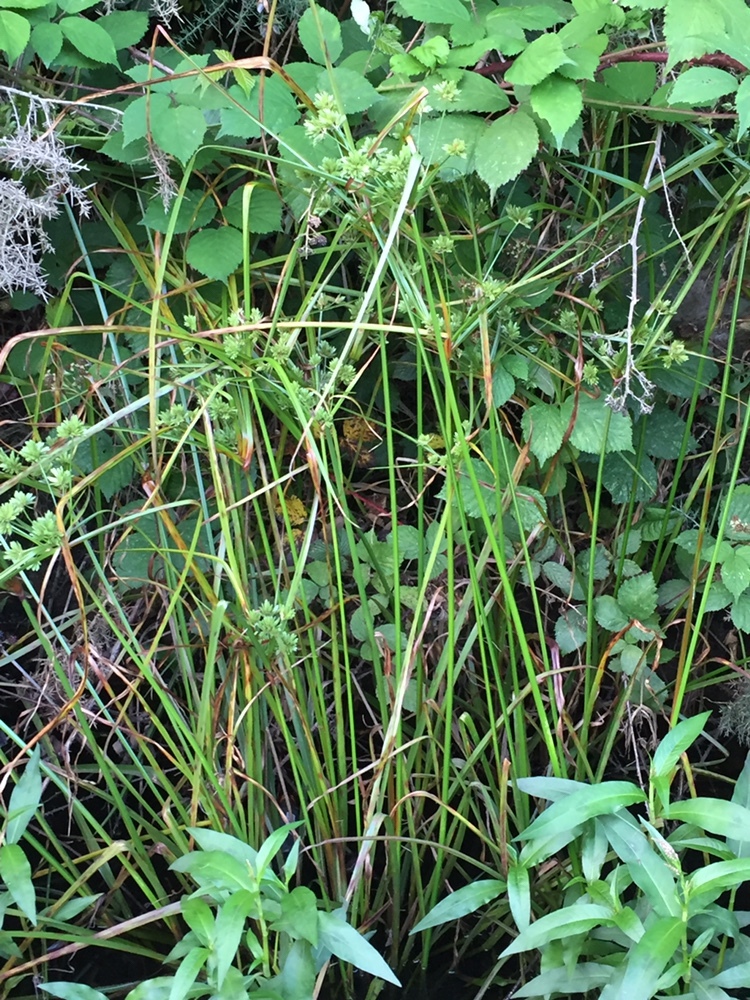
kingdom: Plantae
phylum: Tracheophyta
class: Liliopsida
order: Poales
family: Cyperaceae
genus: Cyperus
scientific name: Cyperus eragrostis
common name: Tall flatsedge
